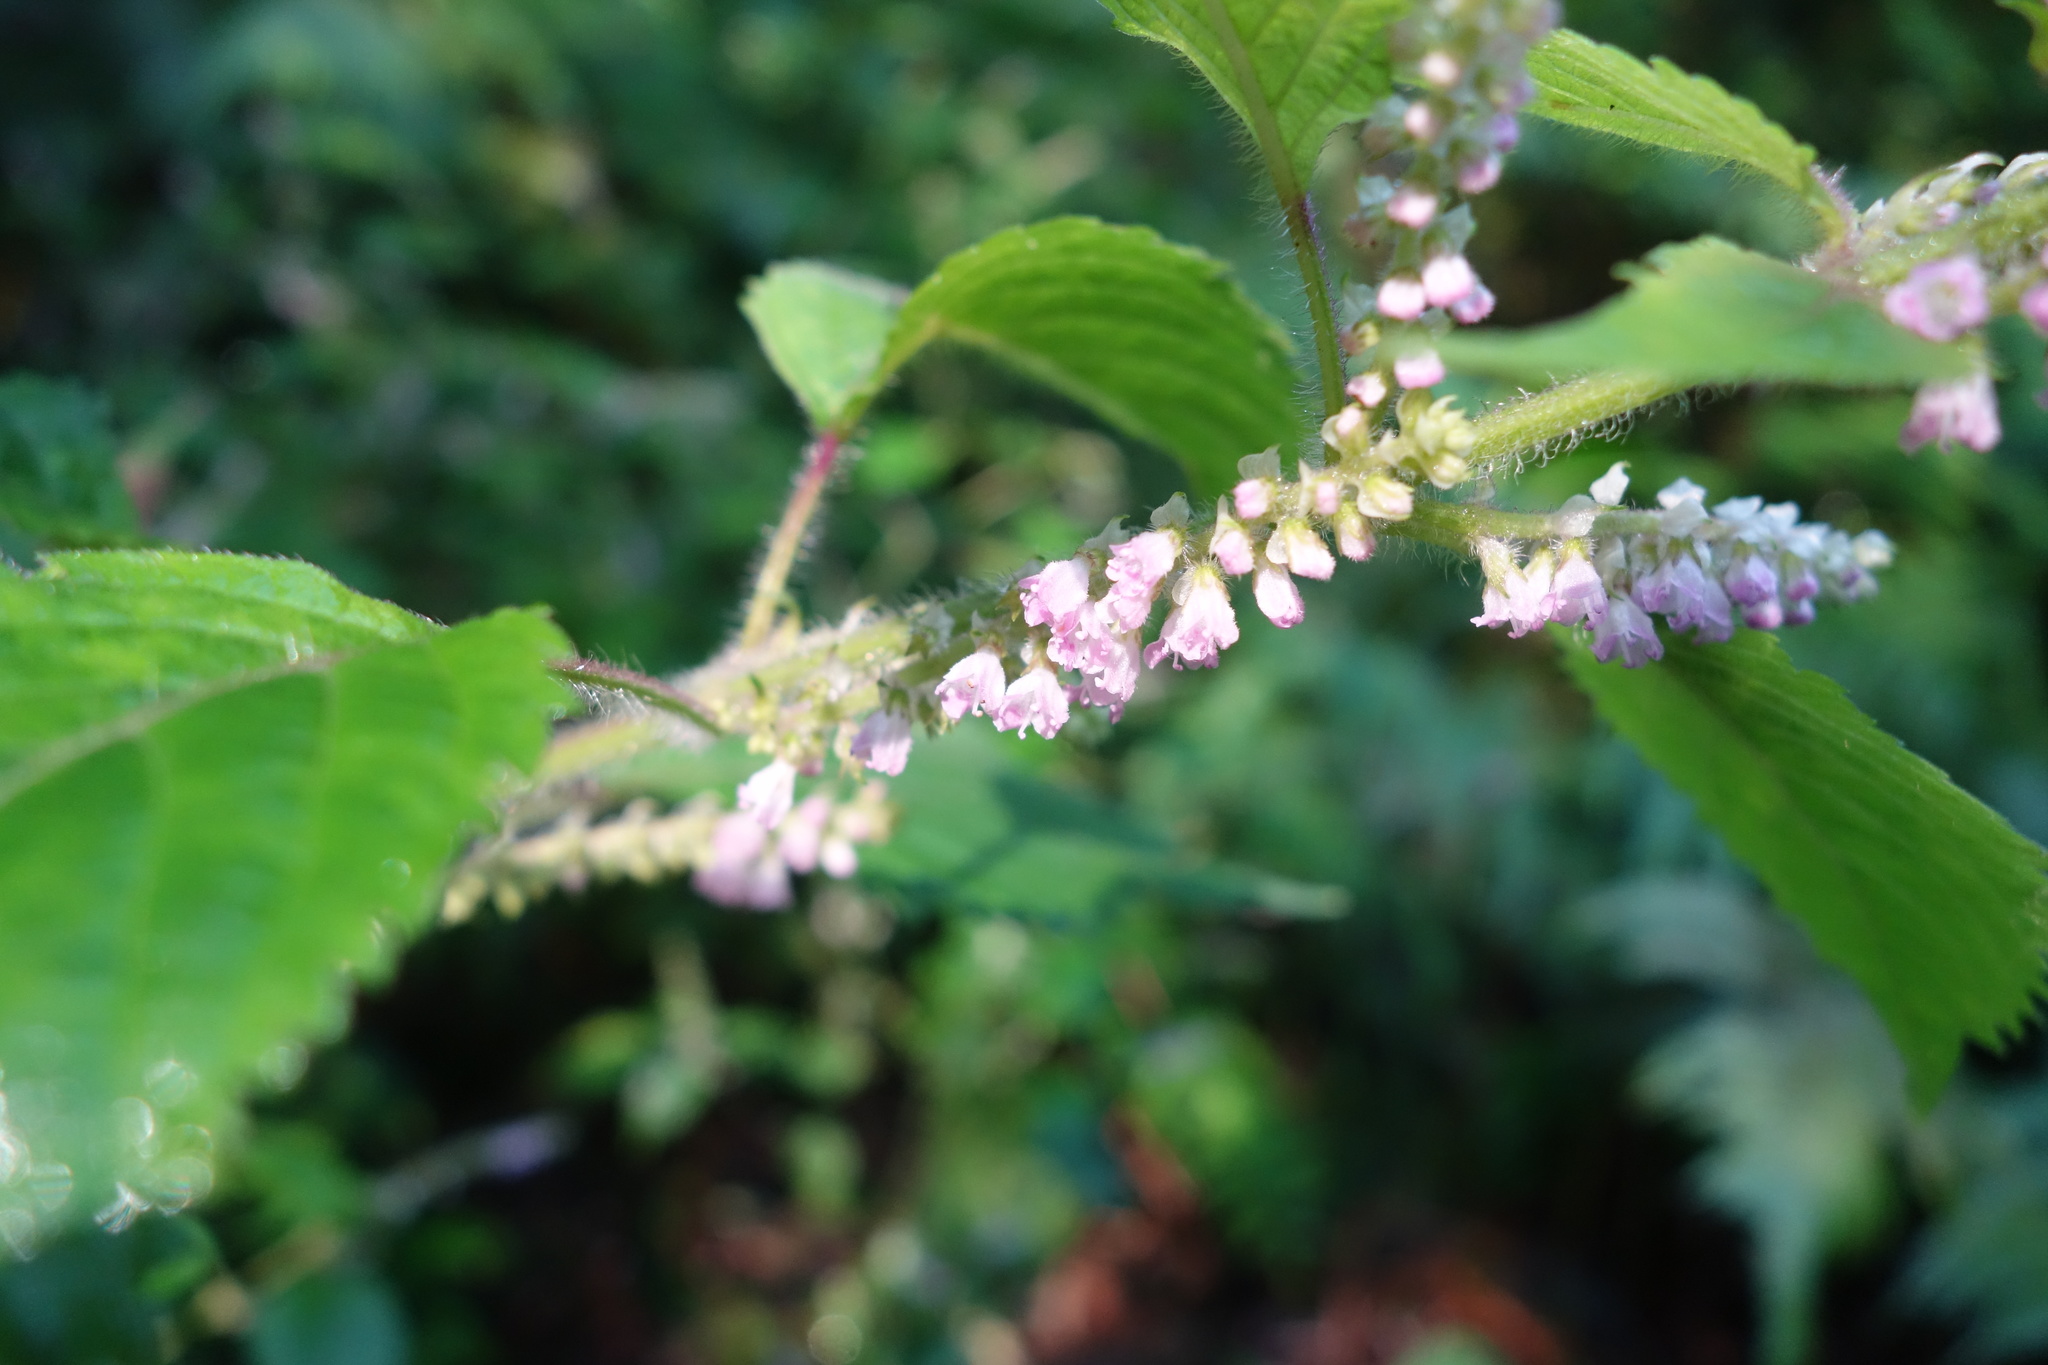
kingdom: Plantae
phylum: Tracheophyta
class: Magnoliopsida
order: Lamiales
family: Lamiaceae
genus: Perilla
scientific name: Perilla frutescens
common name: Perilla
